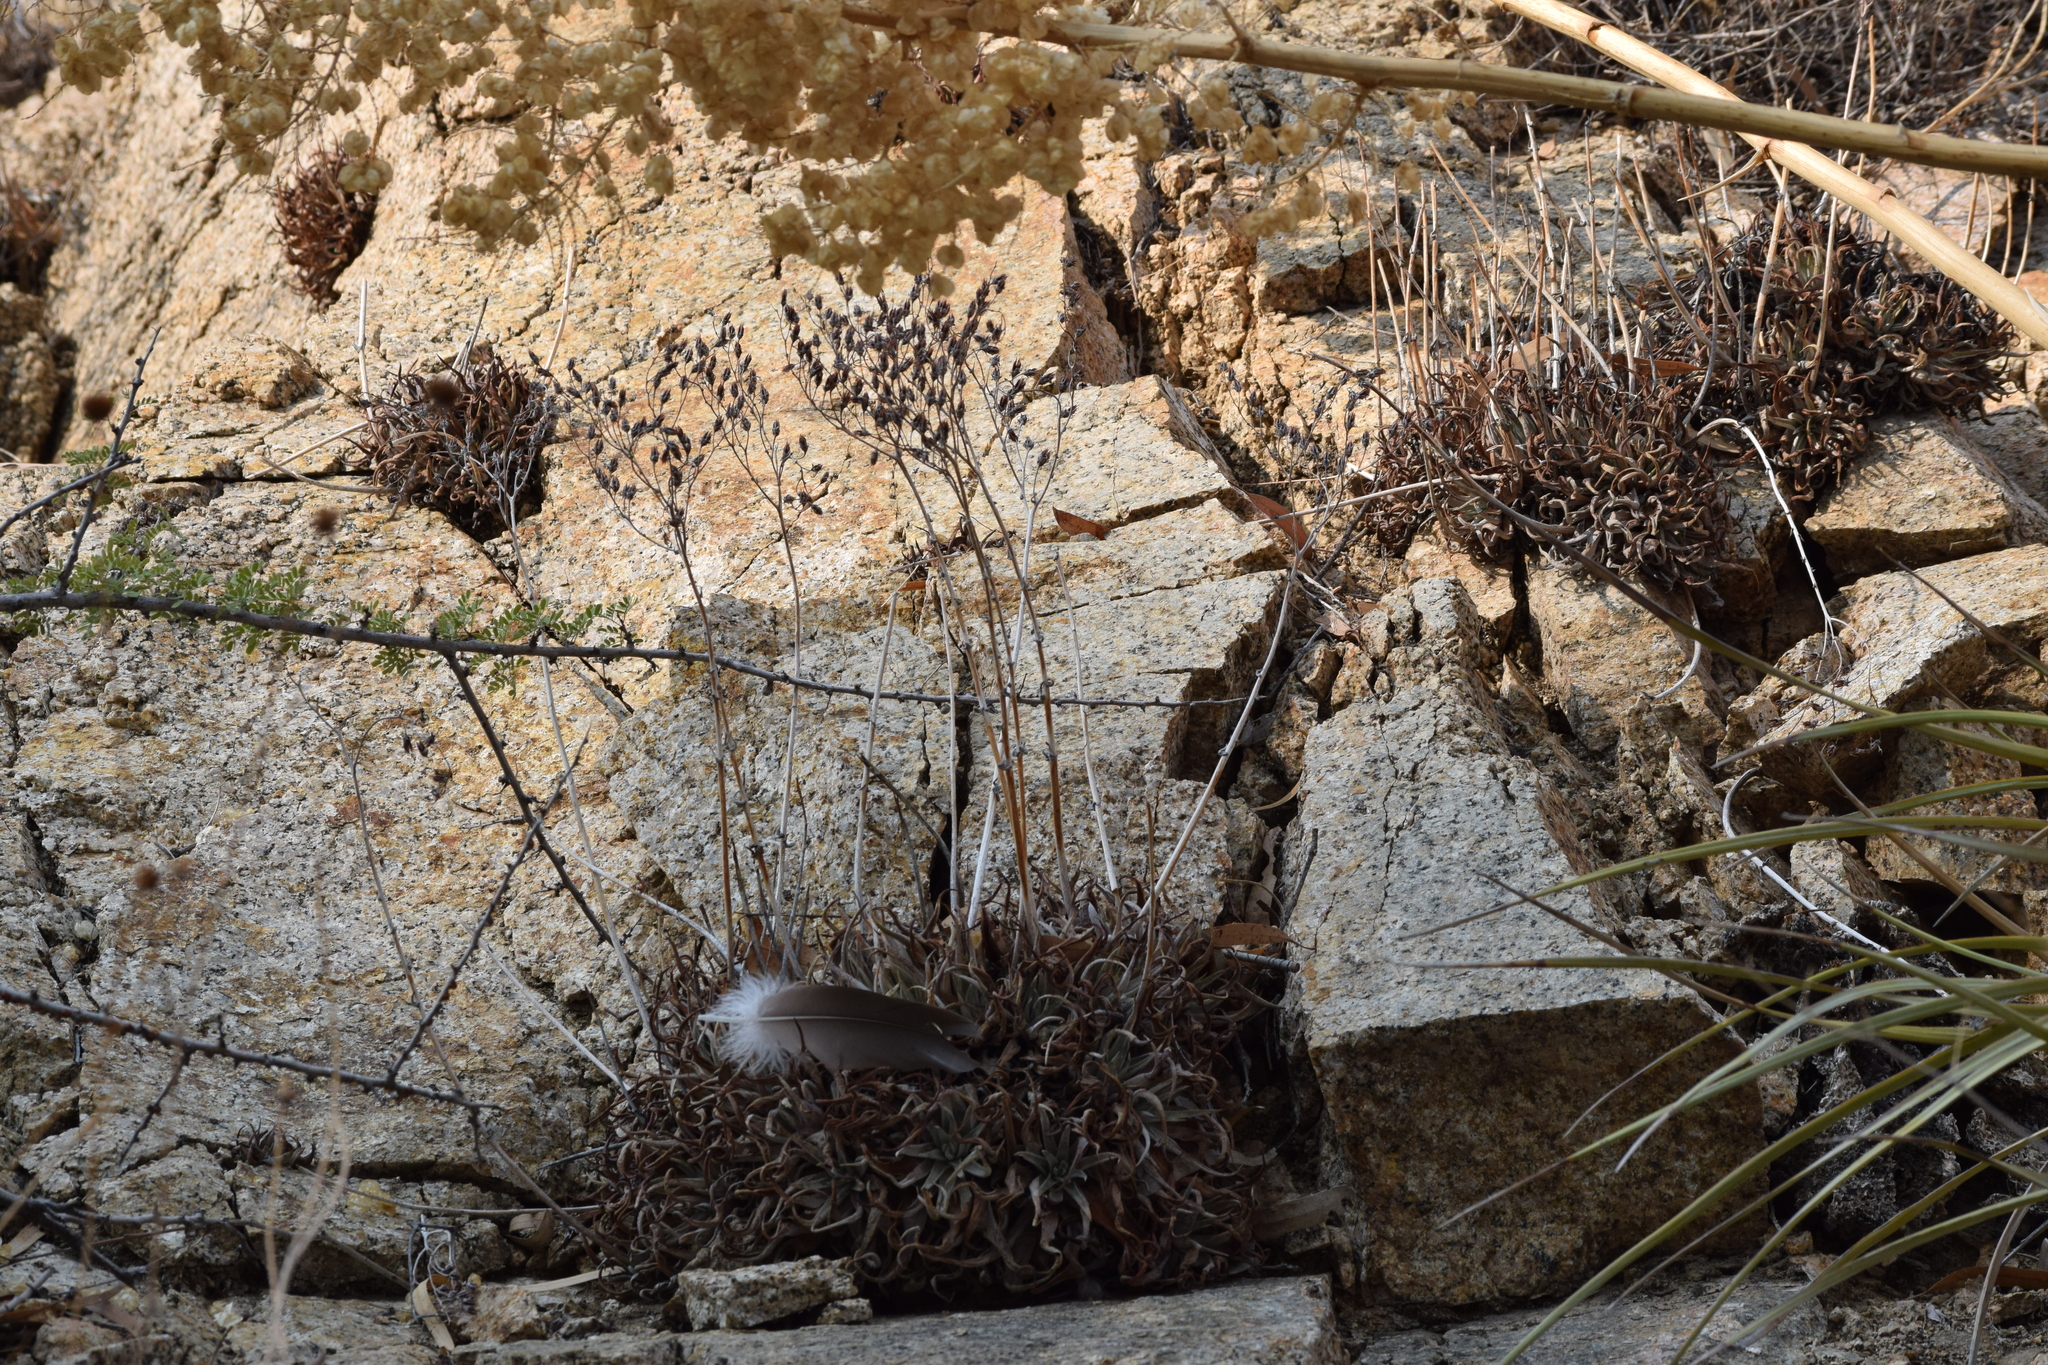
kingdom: Plantae
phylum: Tracheophyta
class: Magnoliopsida
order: Saxifragales
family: Crassulaceae
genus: Dudleya
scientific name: Dudleya saxosa
